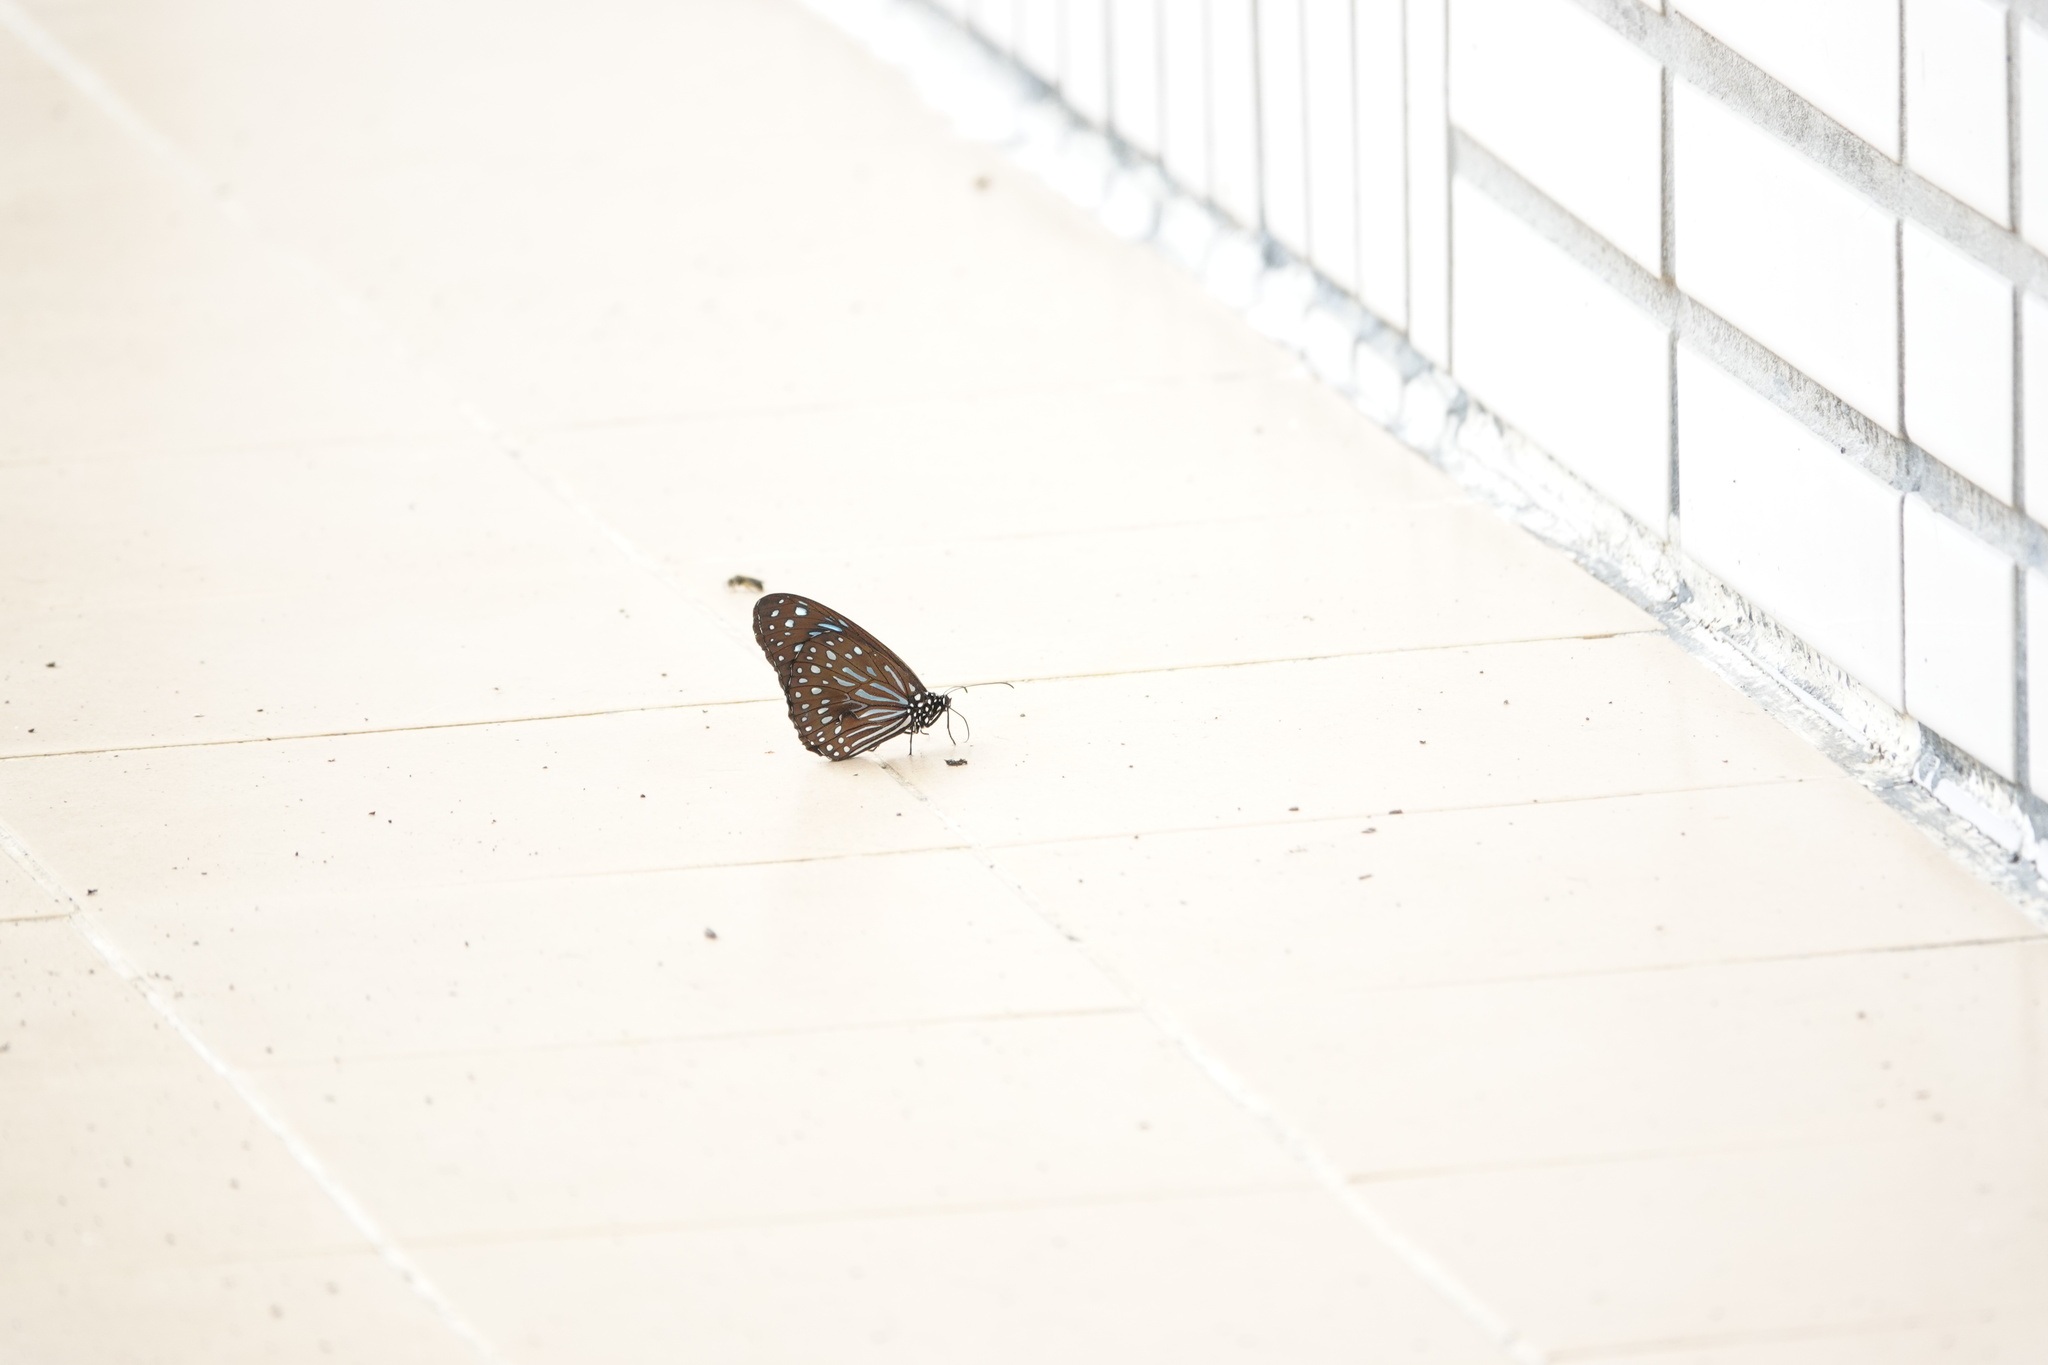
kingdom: Animalia
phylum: Arthropoda
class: Insecta
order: Lepidoptera
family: Nymphalidae
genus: Tirumala
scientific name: Tirumala septentrionis
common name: Dark blue tiger butterfly
